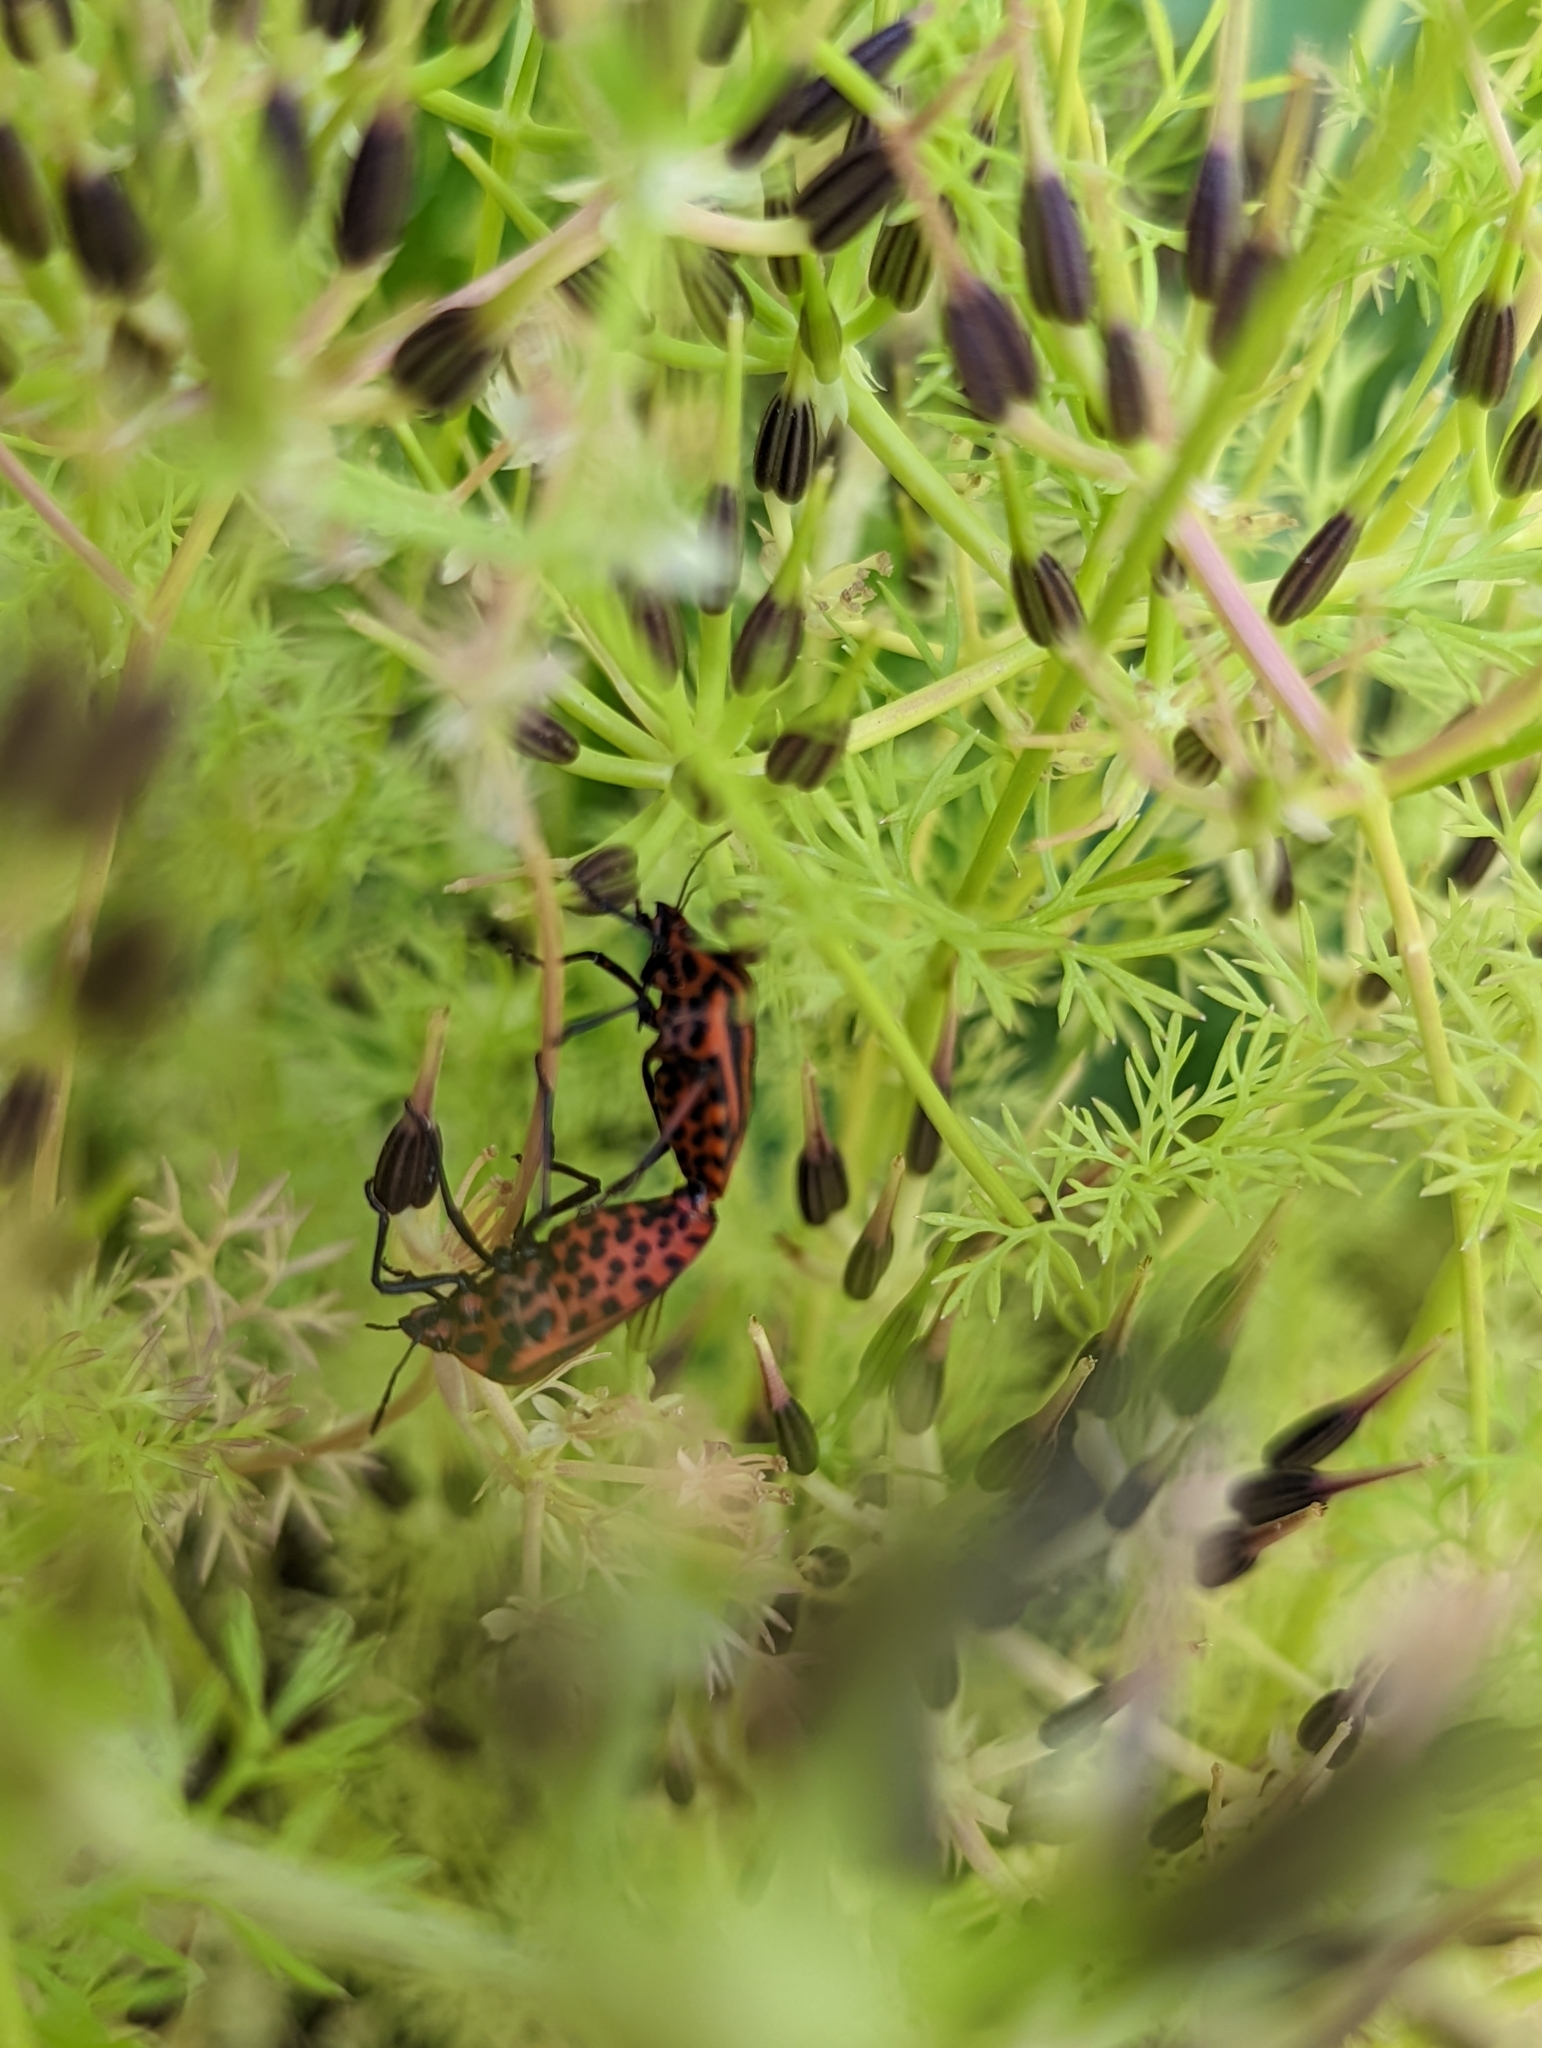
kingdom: Animalia
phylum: Arthropoda
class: Insecta
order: Hemiptera
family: Pentatomidae
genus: Graphosoma
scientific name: Graphosoma italicum
